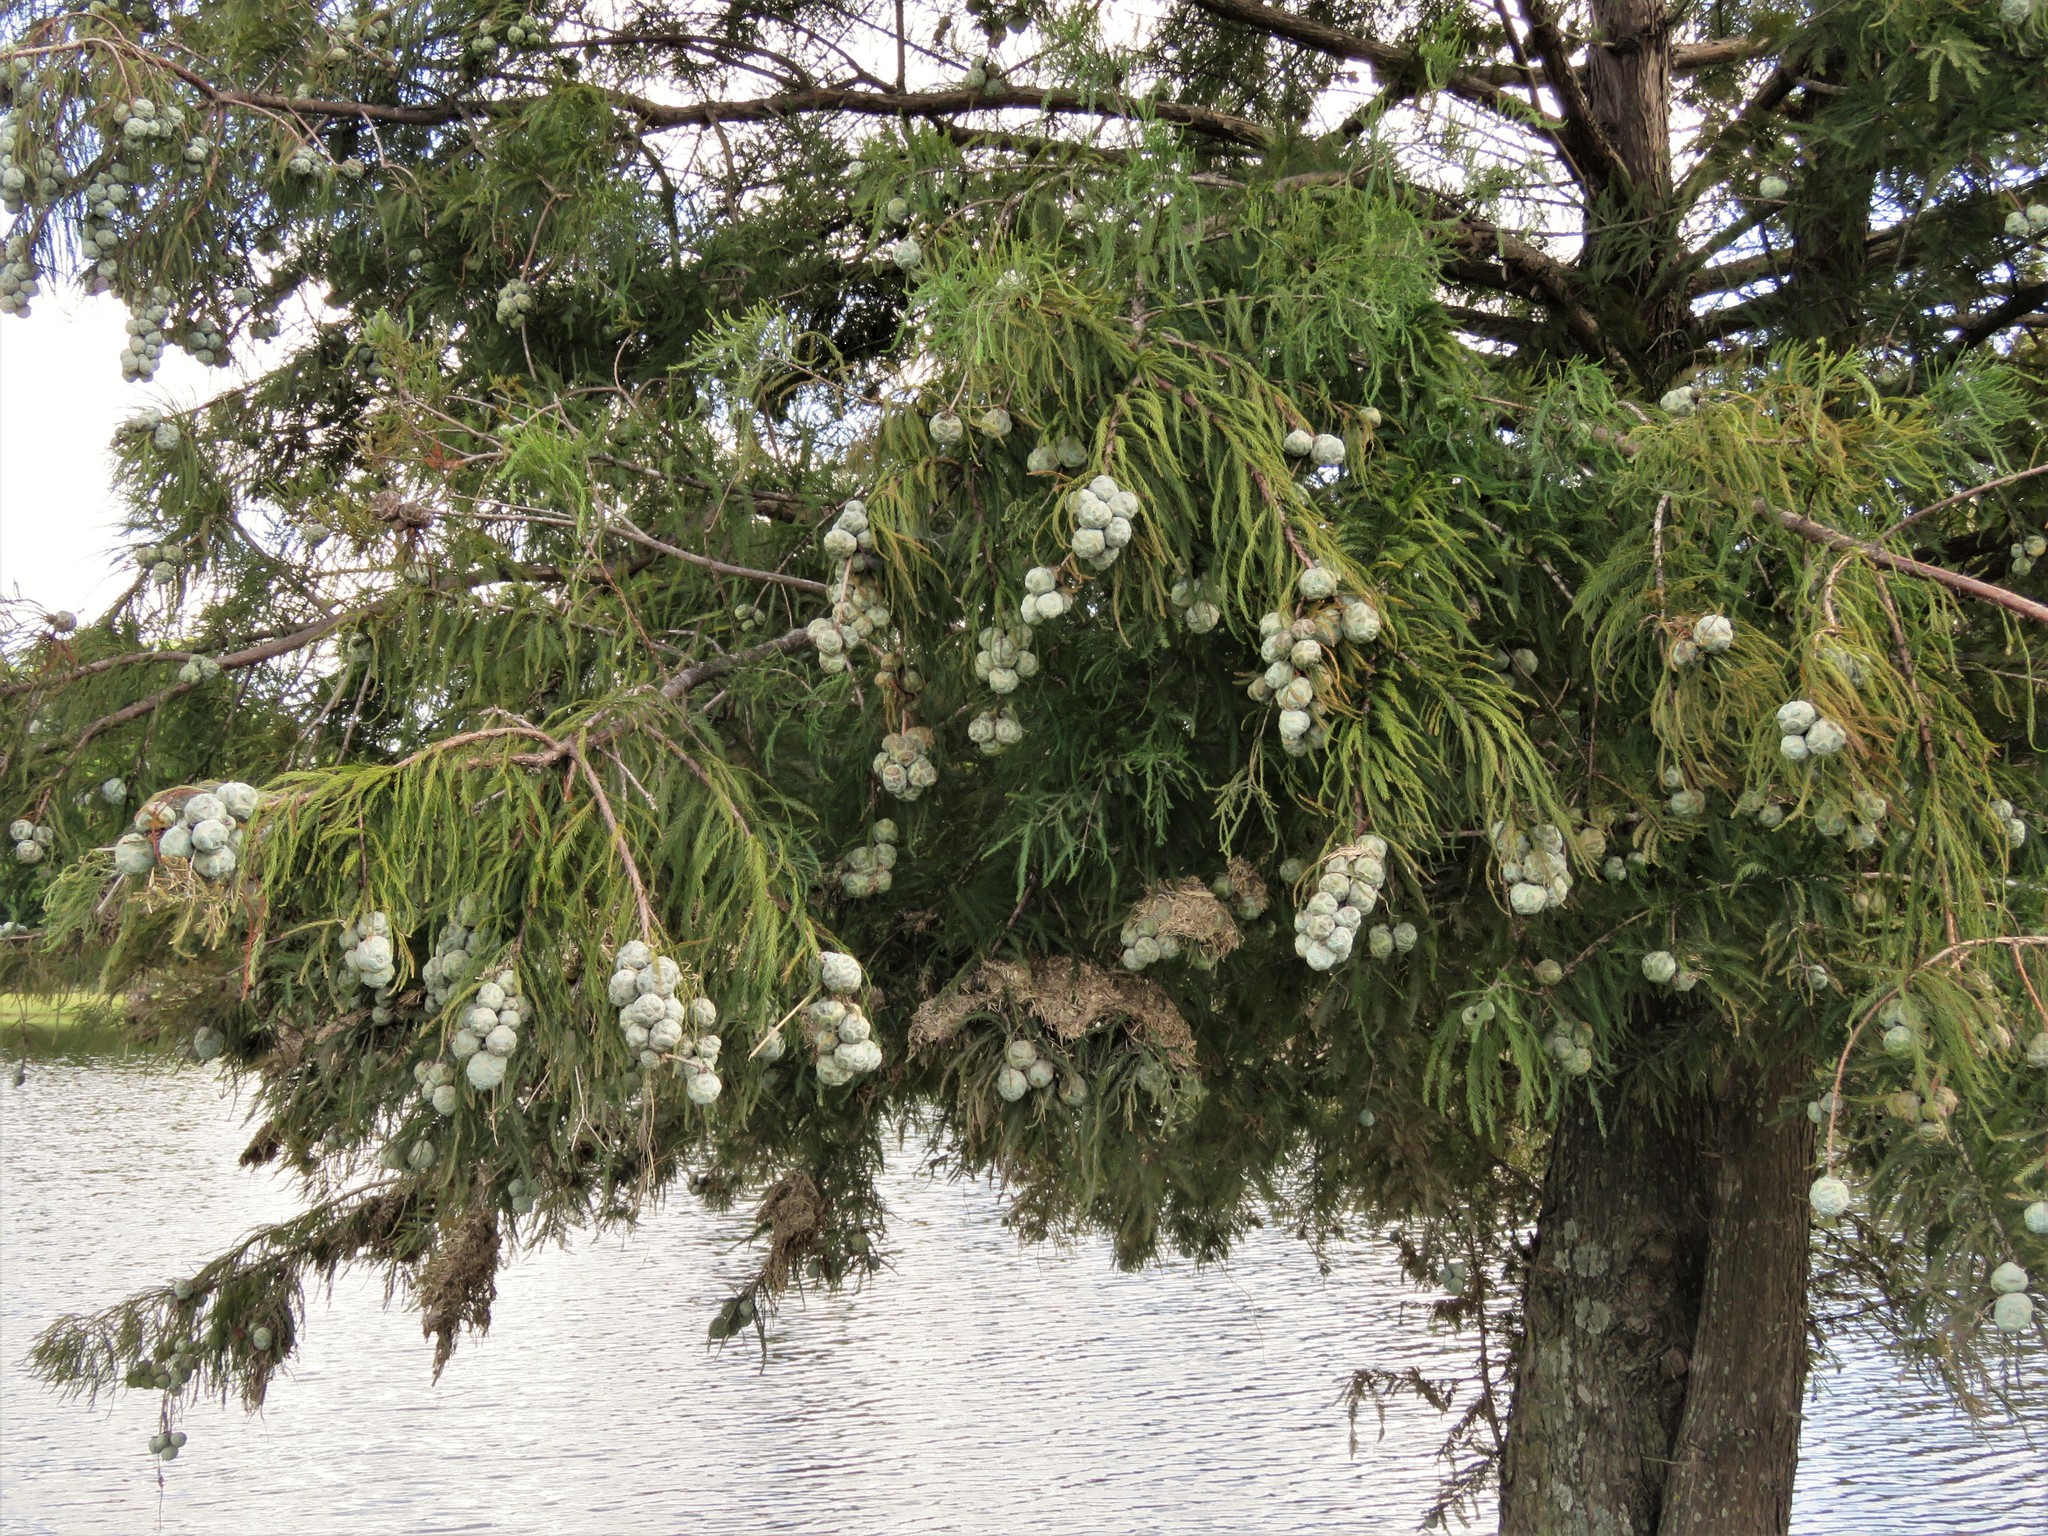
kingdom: Plantae
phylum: Tracheophyta
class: Pinopsida
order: Pinales
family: Cupressaceae
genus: Taxodium
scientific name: Taxodium distichum
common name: Bald cypress
